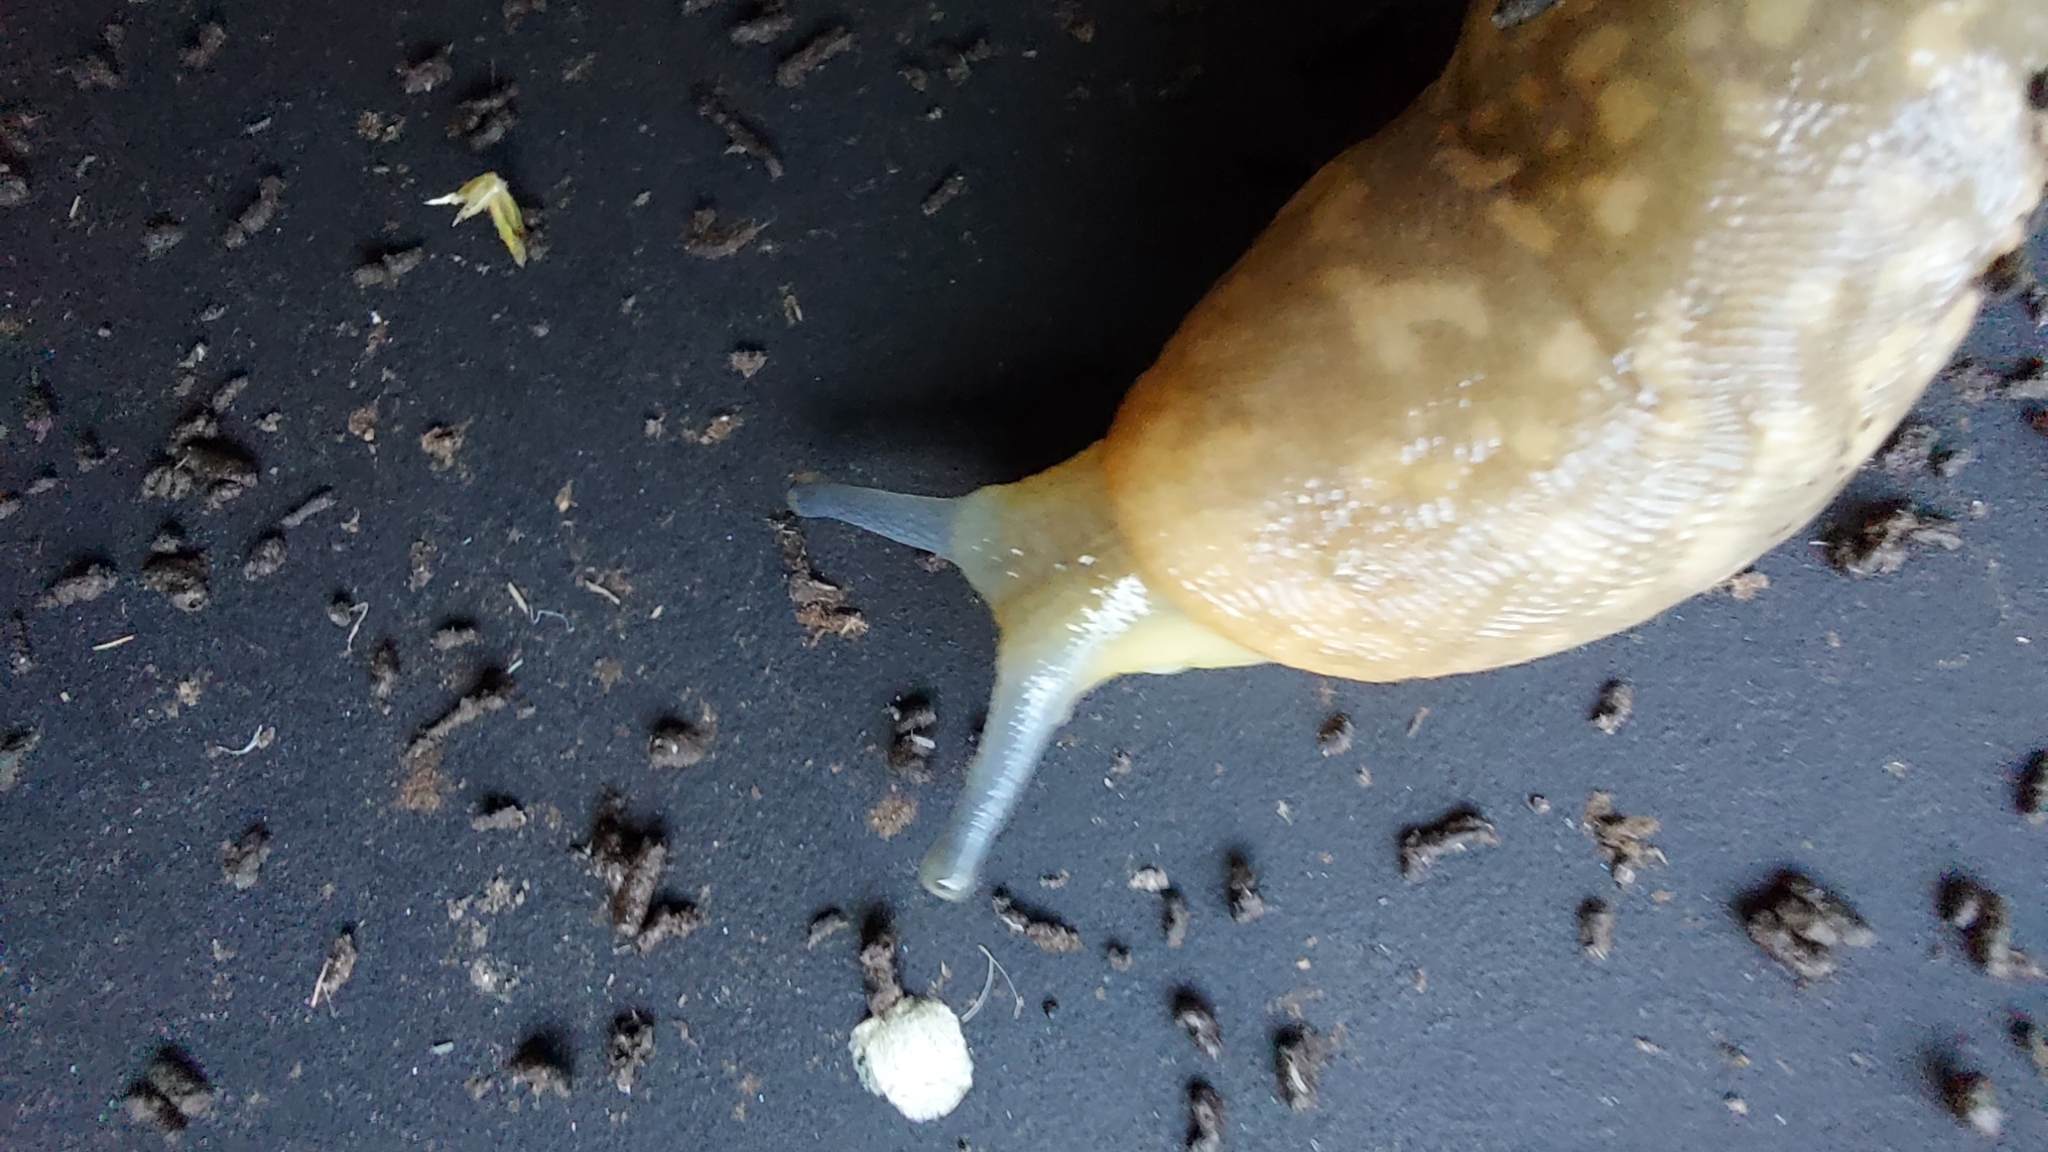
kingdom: Animalia
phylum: Mollusca
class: Gastropoda
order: Stylommatophora
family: Limacidae
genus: Limacus
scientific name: Limacus flavus
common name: Yellow gardenslug
